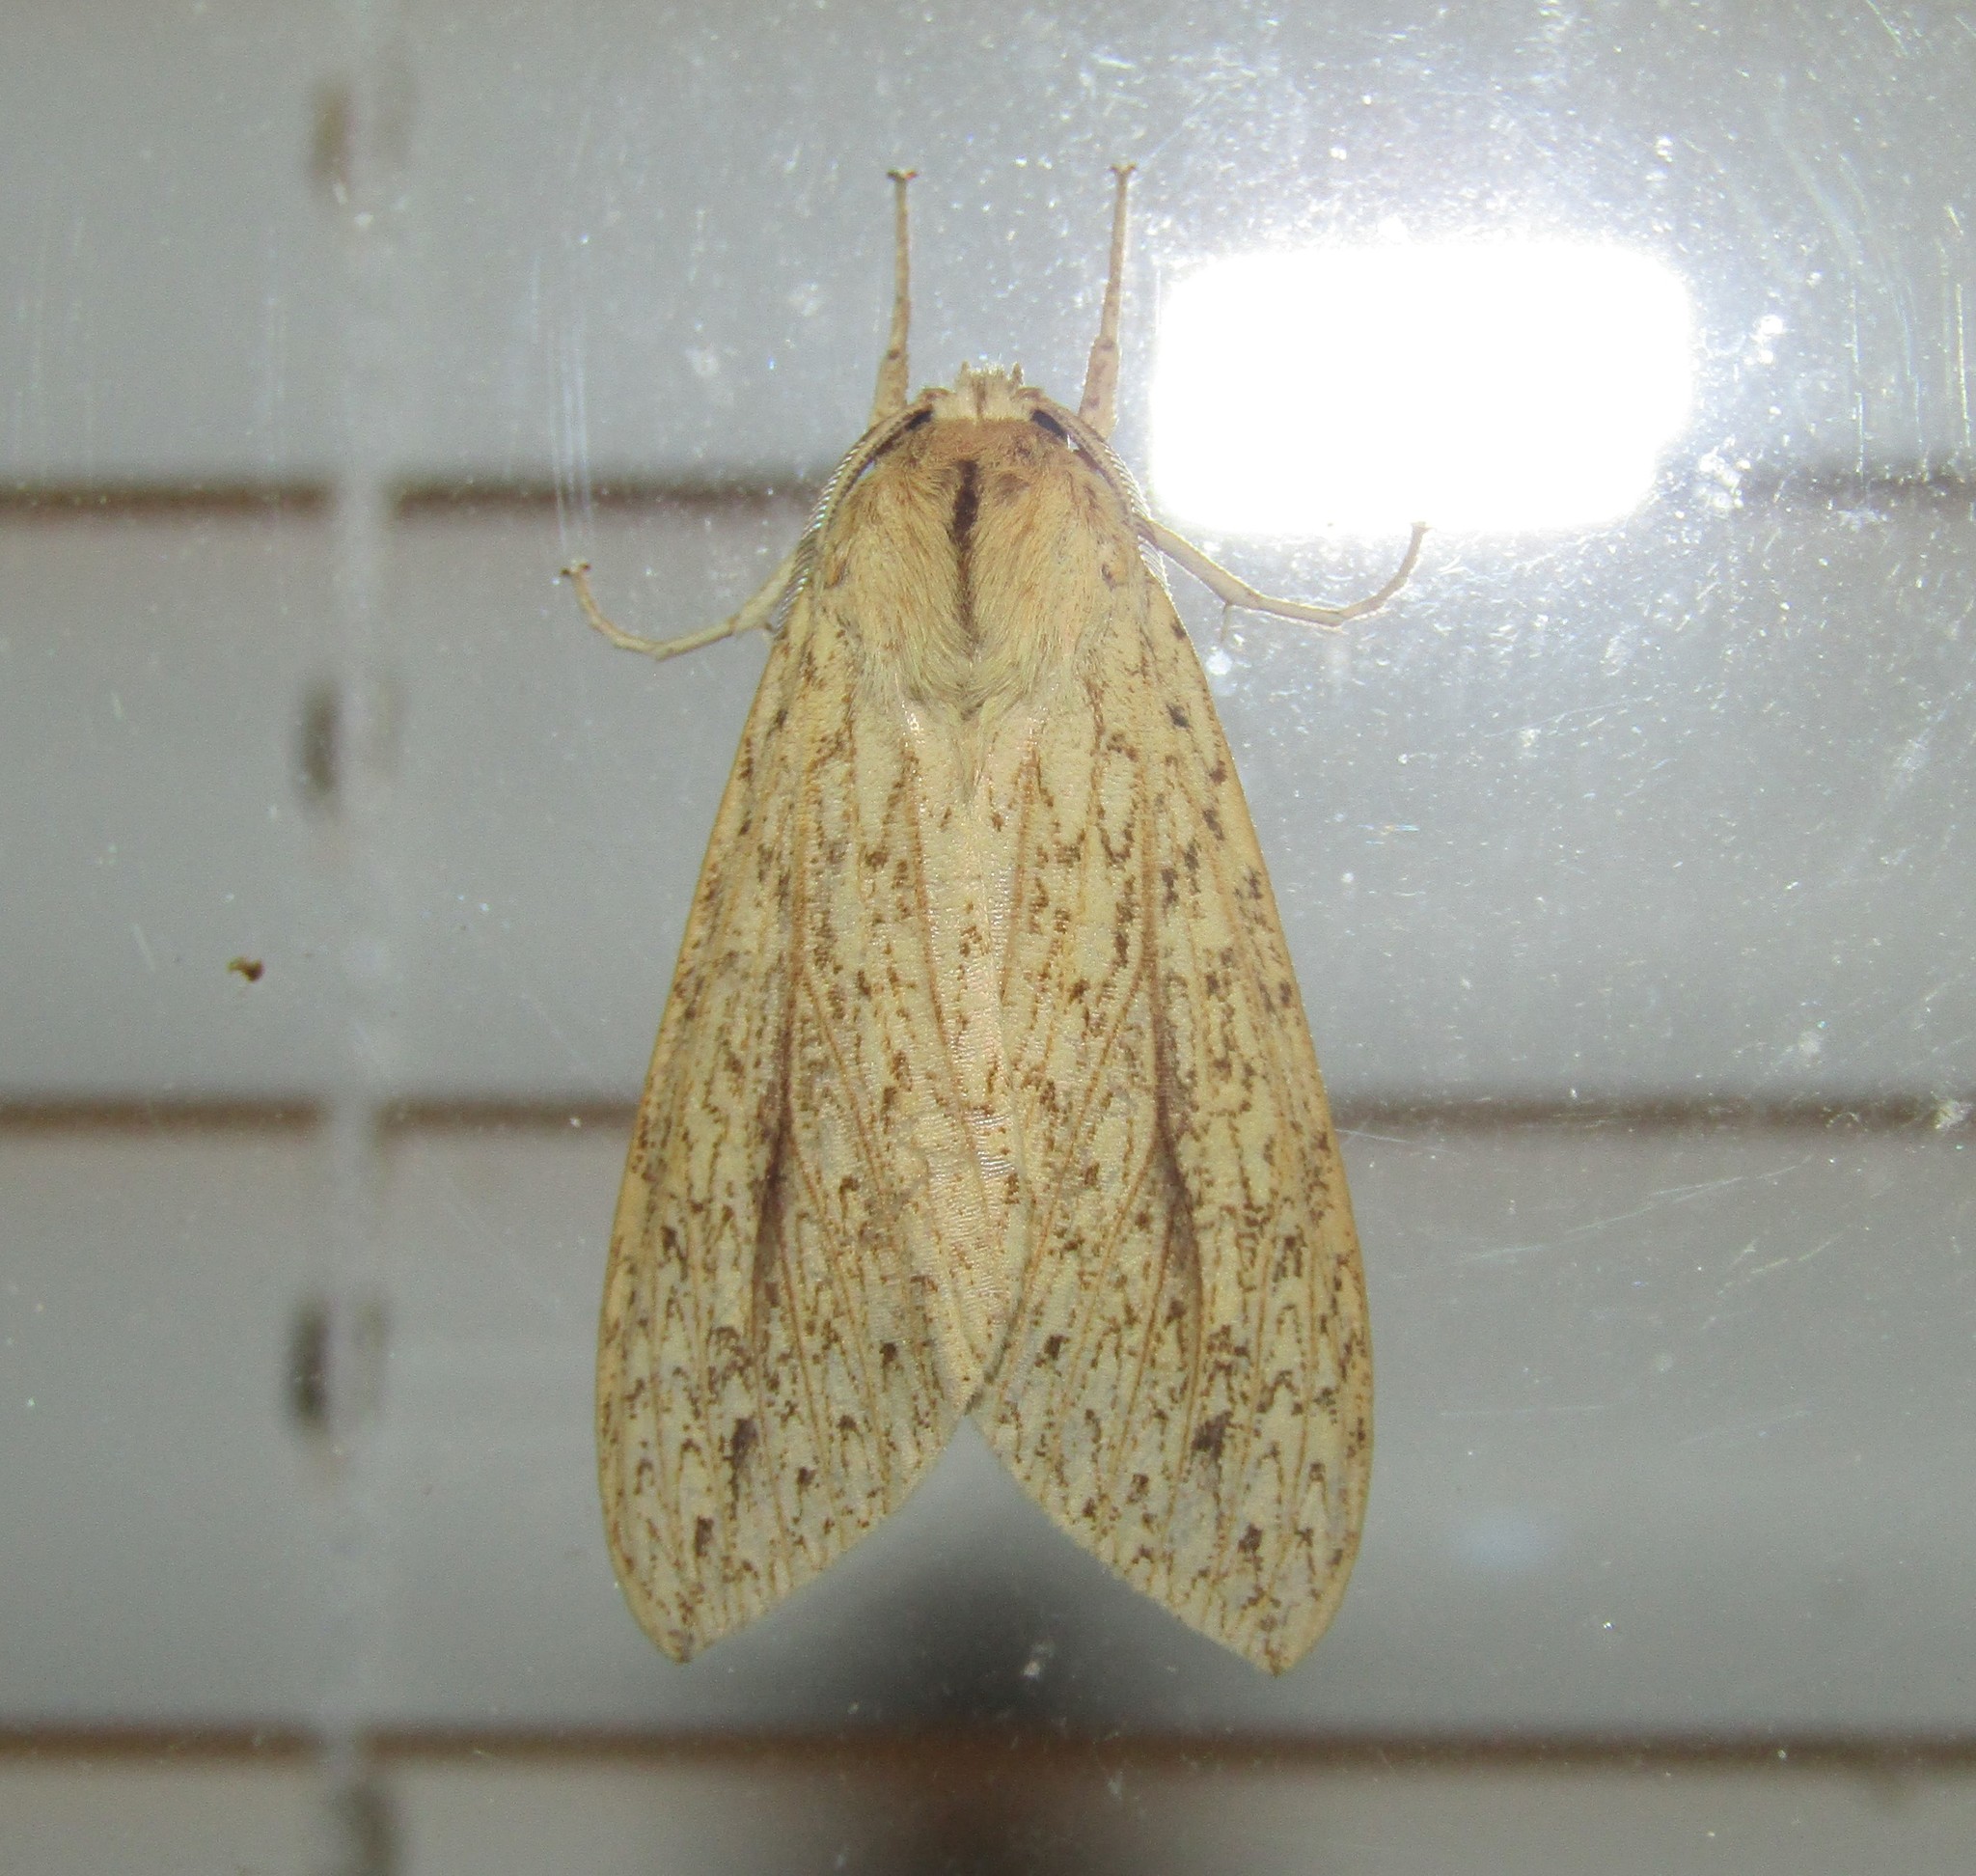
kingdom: Animalia
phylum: Arthropoda
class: Insecta
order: Lepidoptera
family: Erebidae
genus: Leucanopsis
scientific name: Leucanopsis longa
